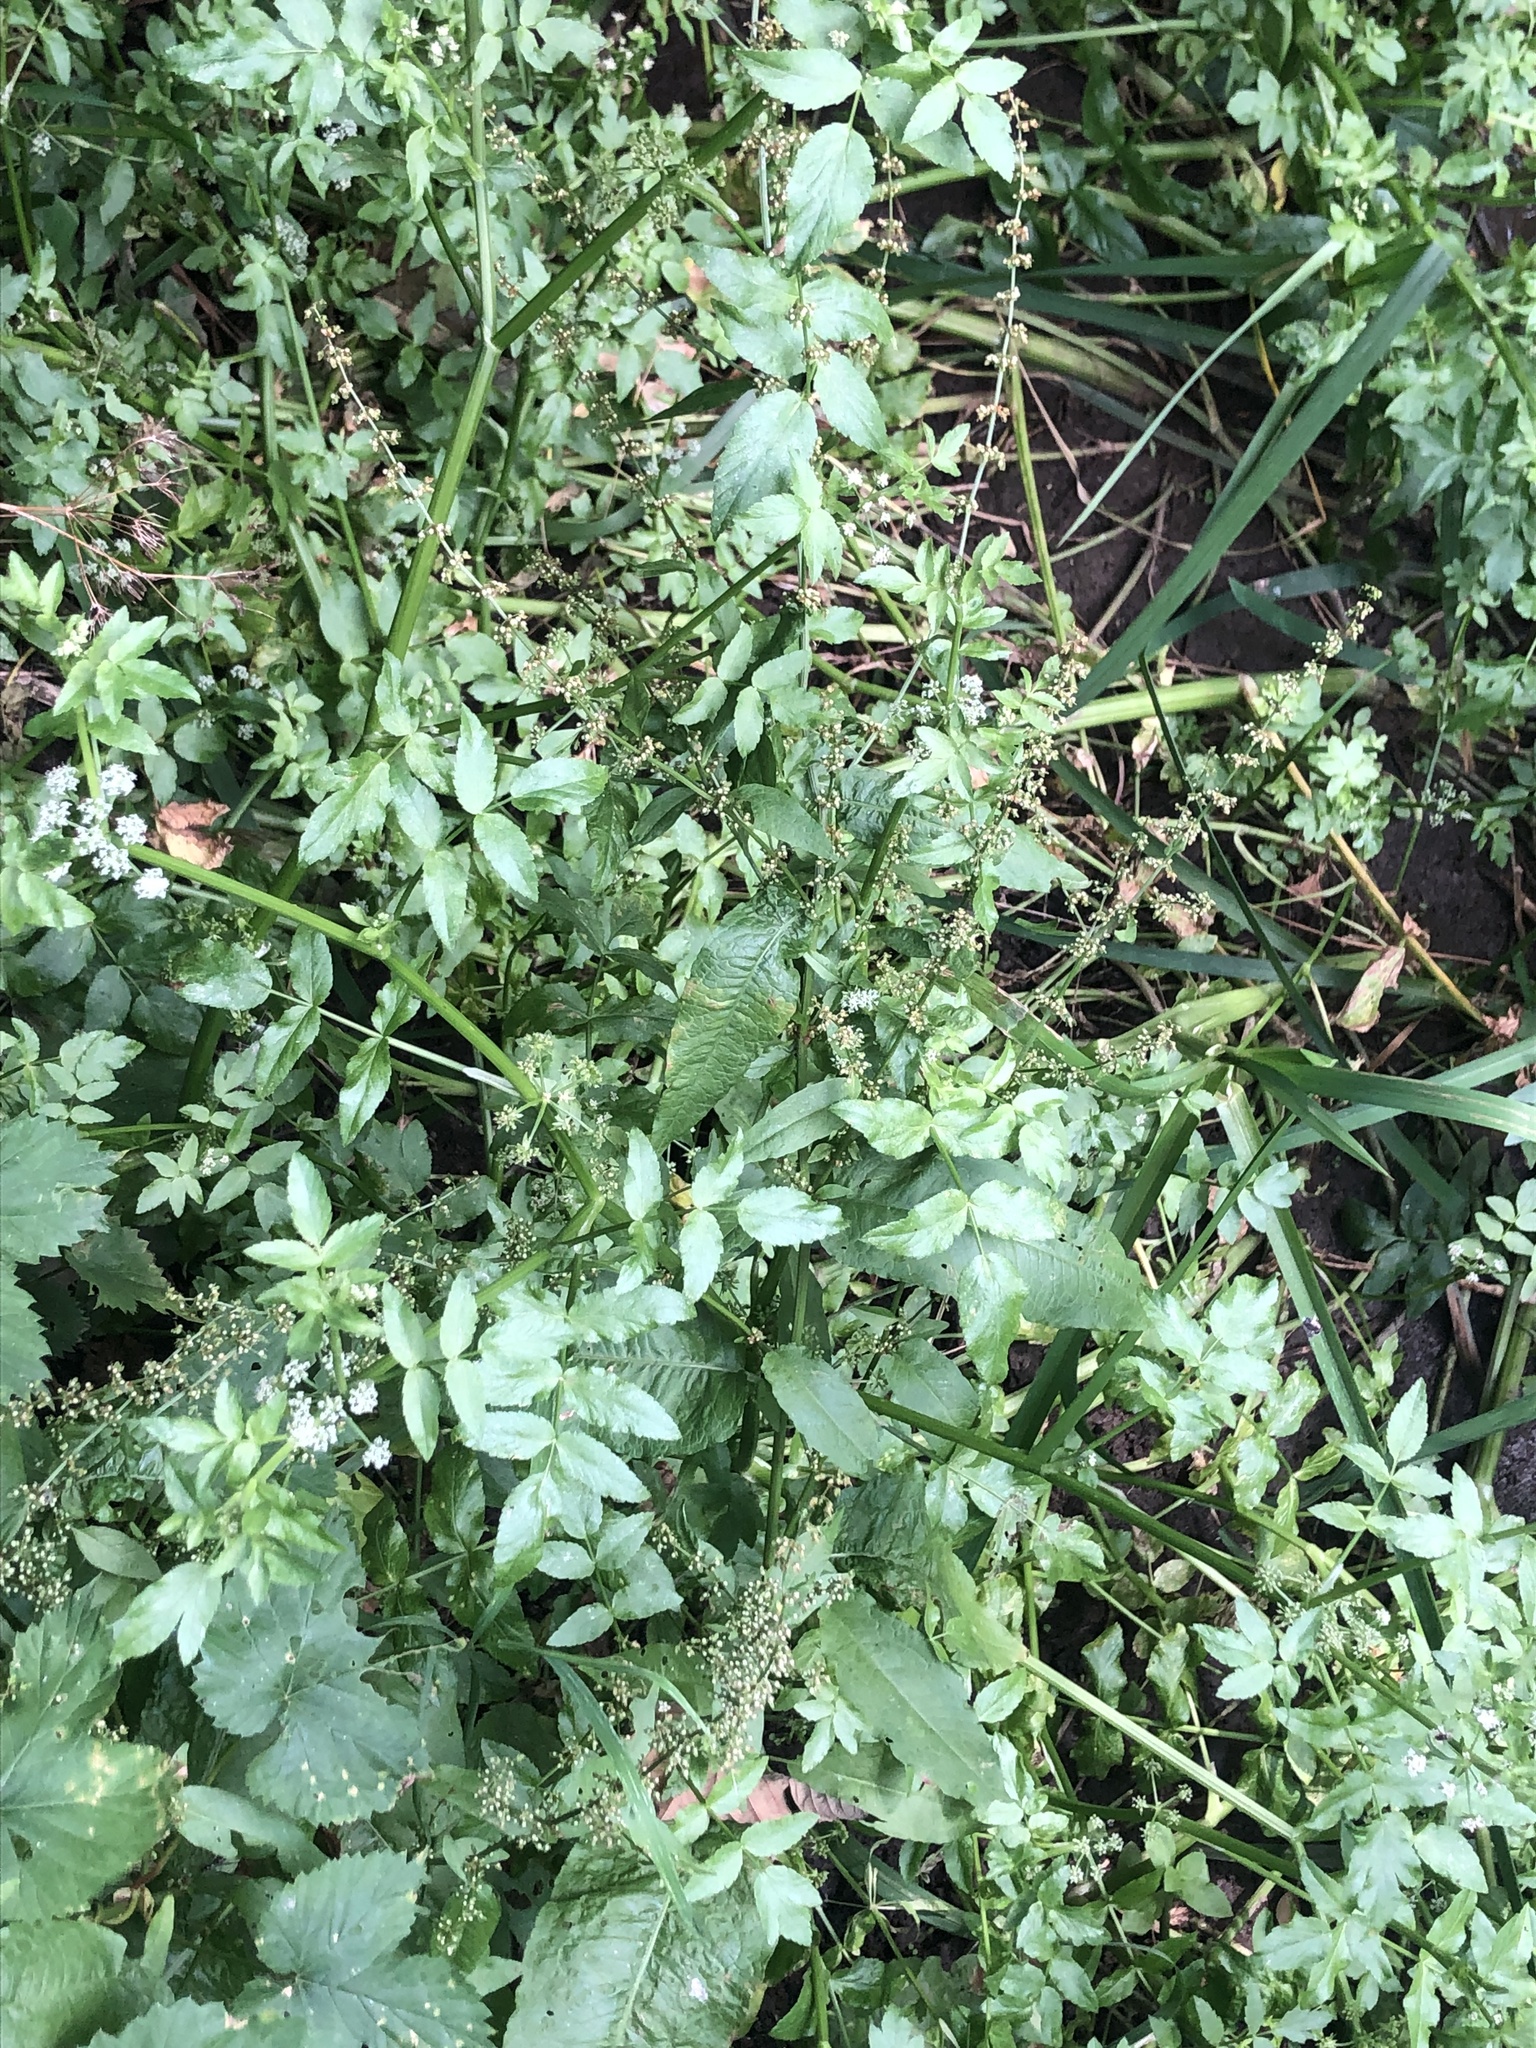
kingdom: Plantae
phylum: Tracheophyta
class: Magnoliopsida
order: Apiales
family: Apiaceae
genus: Helosciadium
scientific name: Helosciadium nodiflorum
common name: Fool's-watercress
